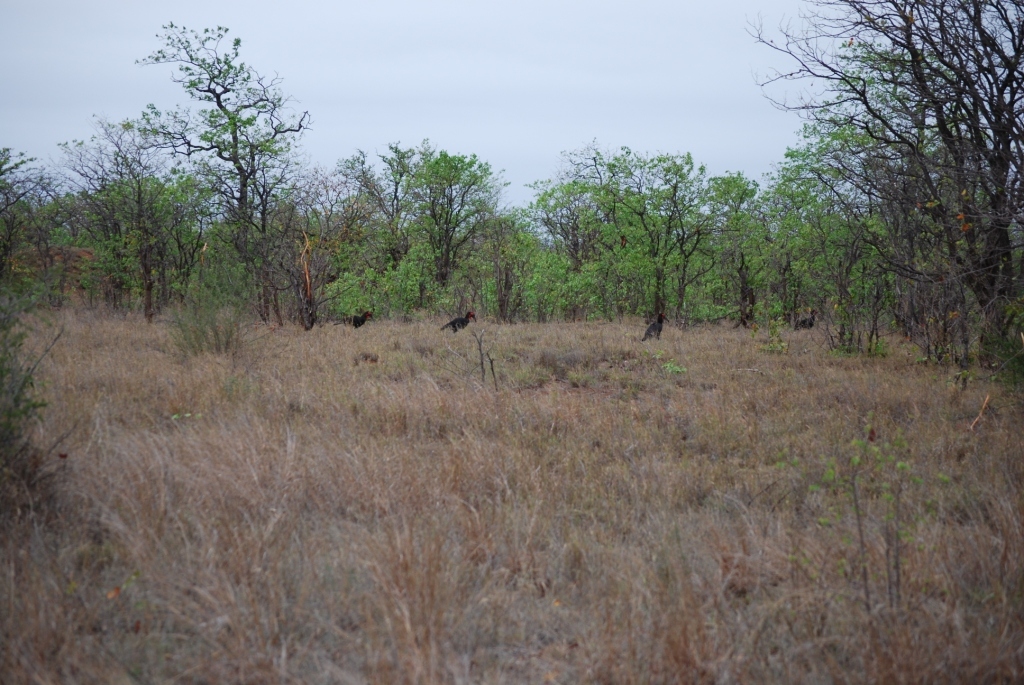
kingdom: Animalia
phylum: Chordata
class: Aves
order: Bucerotiformes
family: Bucorvidae
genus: Bucorvus
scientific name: Bucorvus leadbeateri
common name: Southern ground-hornbill
